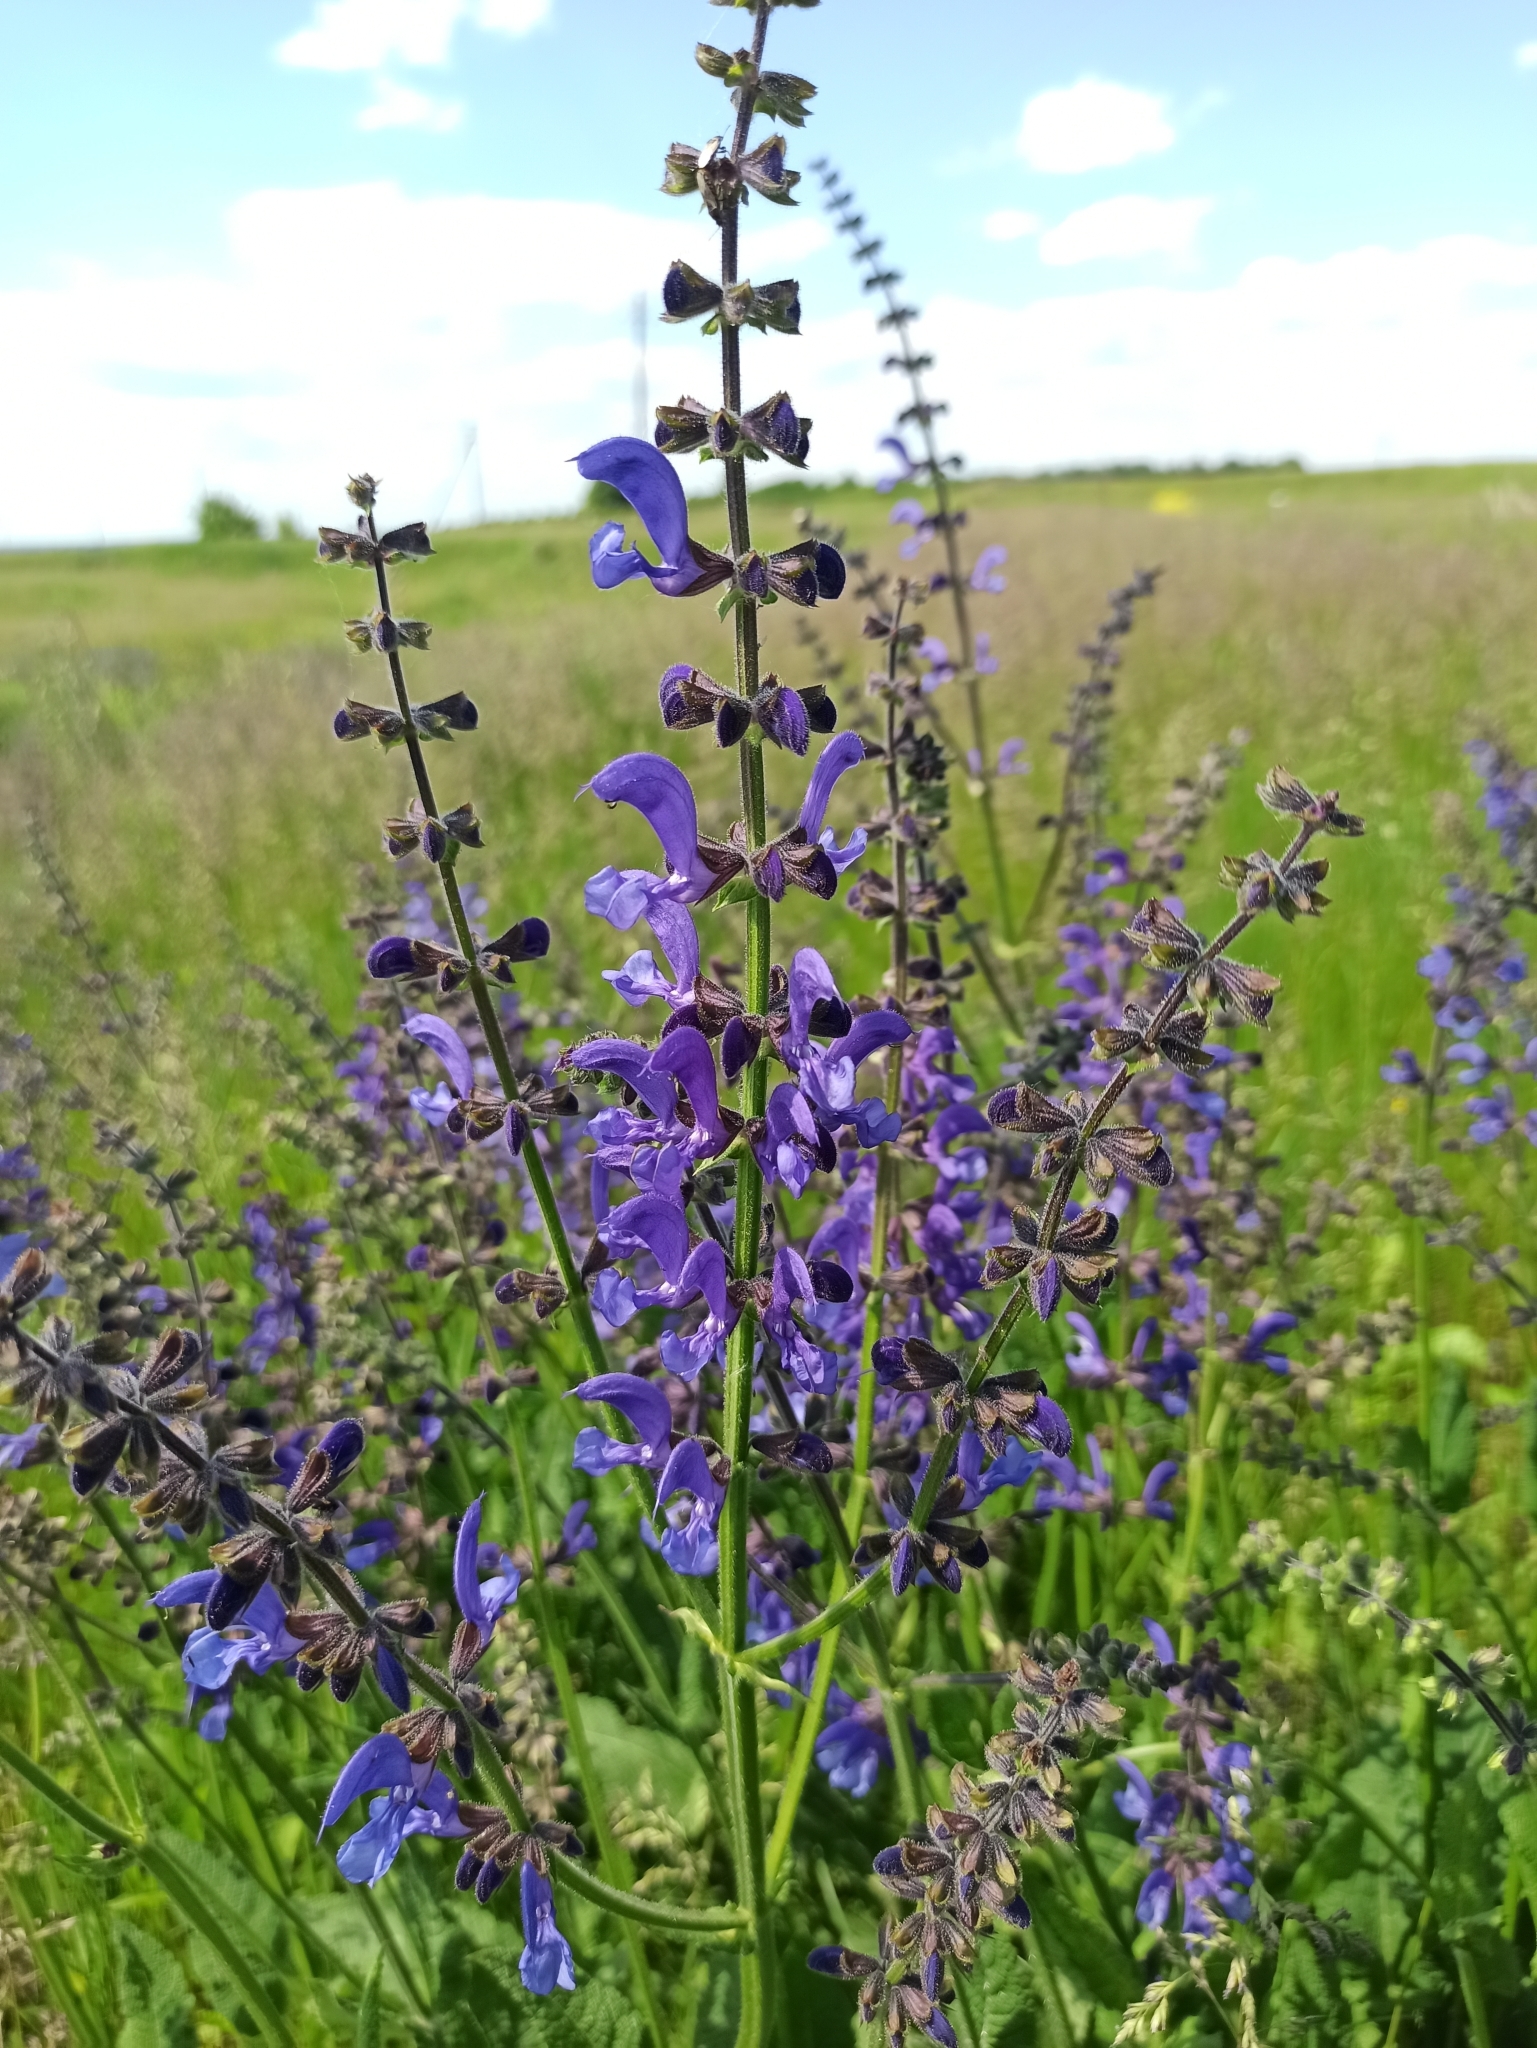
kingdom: Plantae
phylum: Tracheophyta
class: Magnoliopsida
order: Lamiales
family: Lamiaceae
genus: Salvia
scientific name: Salvia pratensis
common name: Meadow sage
